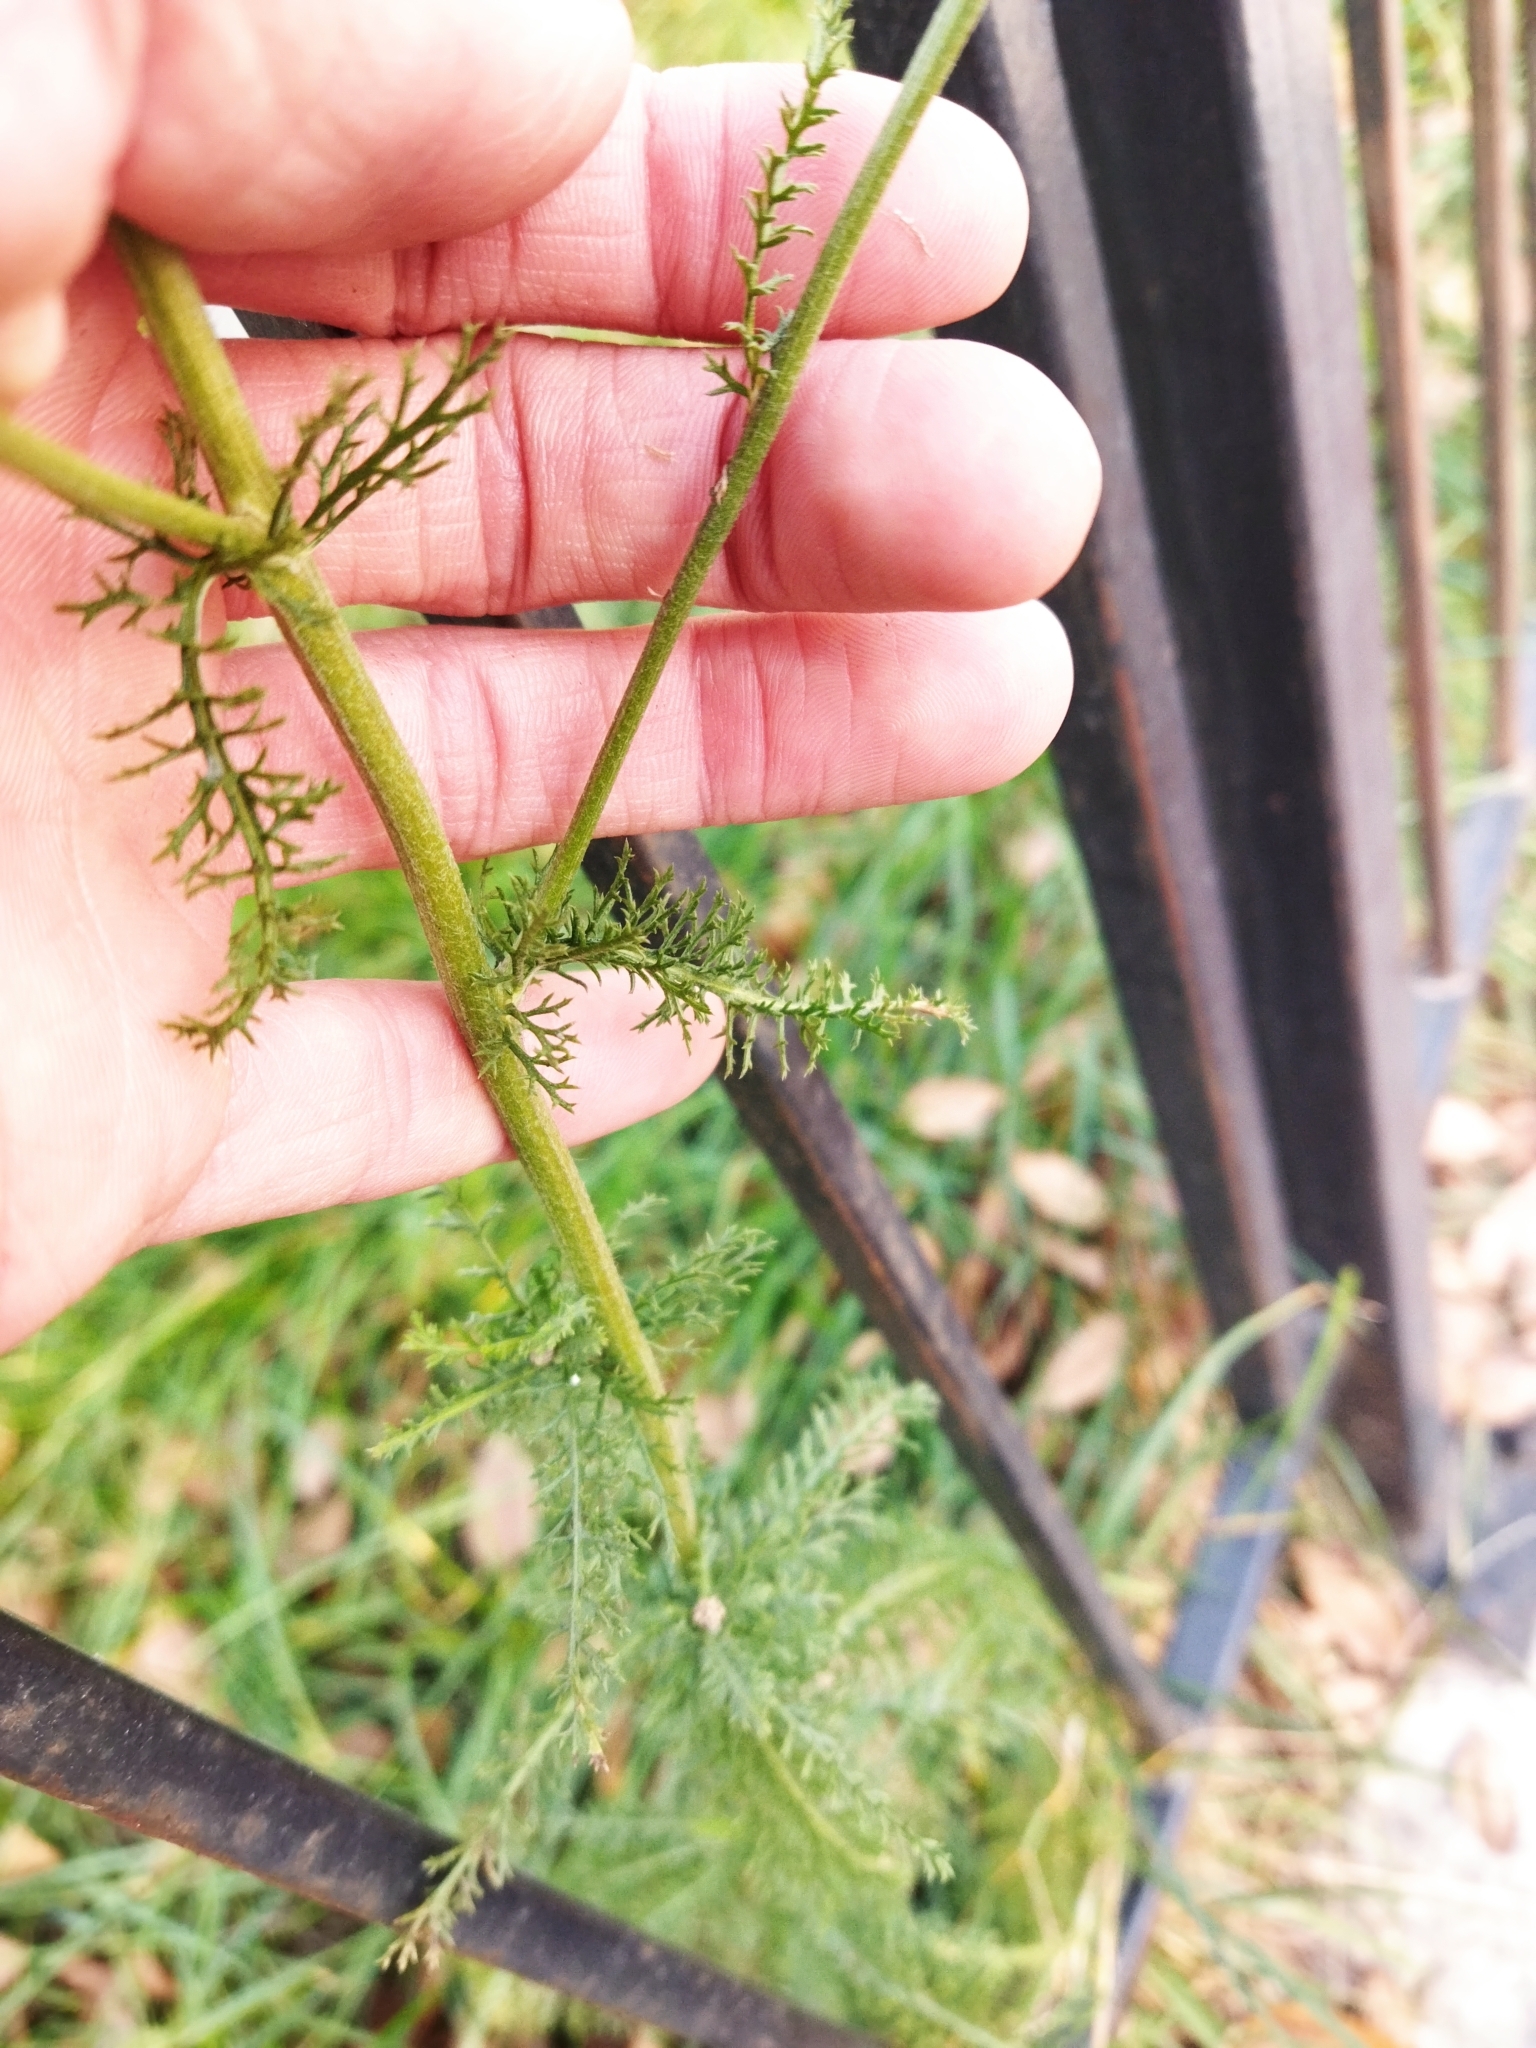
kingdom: Plantae
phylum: Tracheophyta
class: Magnoliopsida
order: Asterales
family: Asteraceae
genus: Achillea
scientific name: Achillea millefolium
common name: Yarrow
